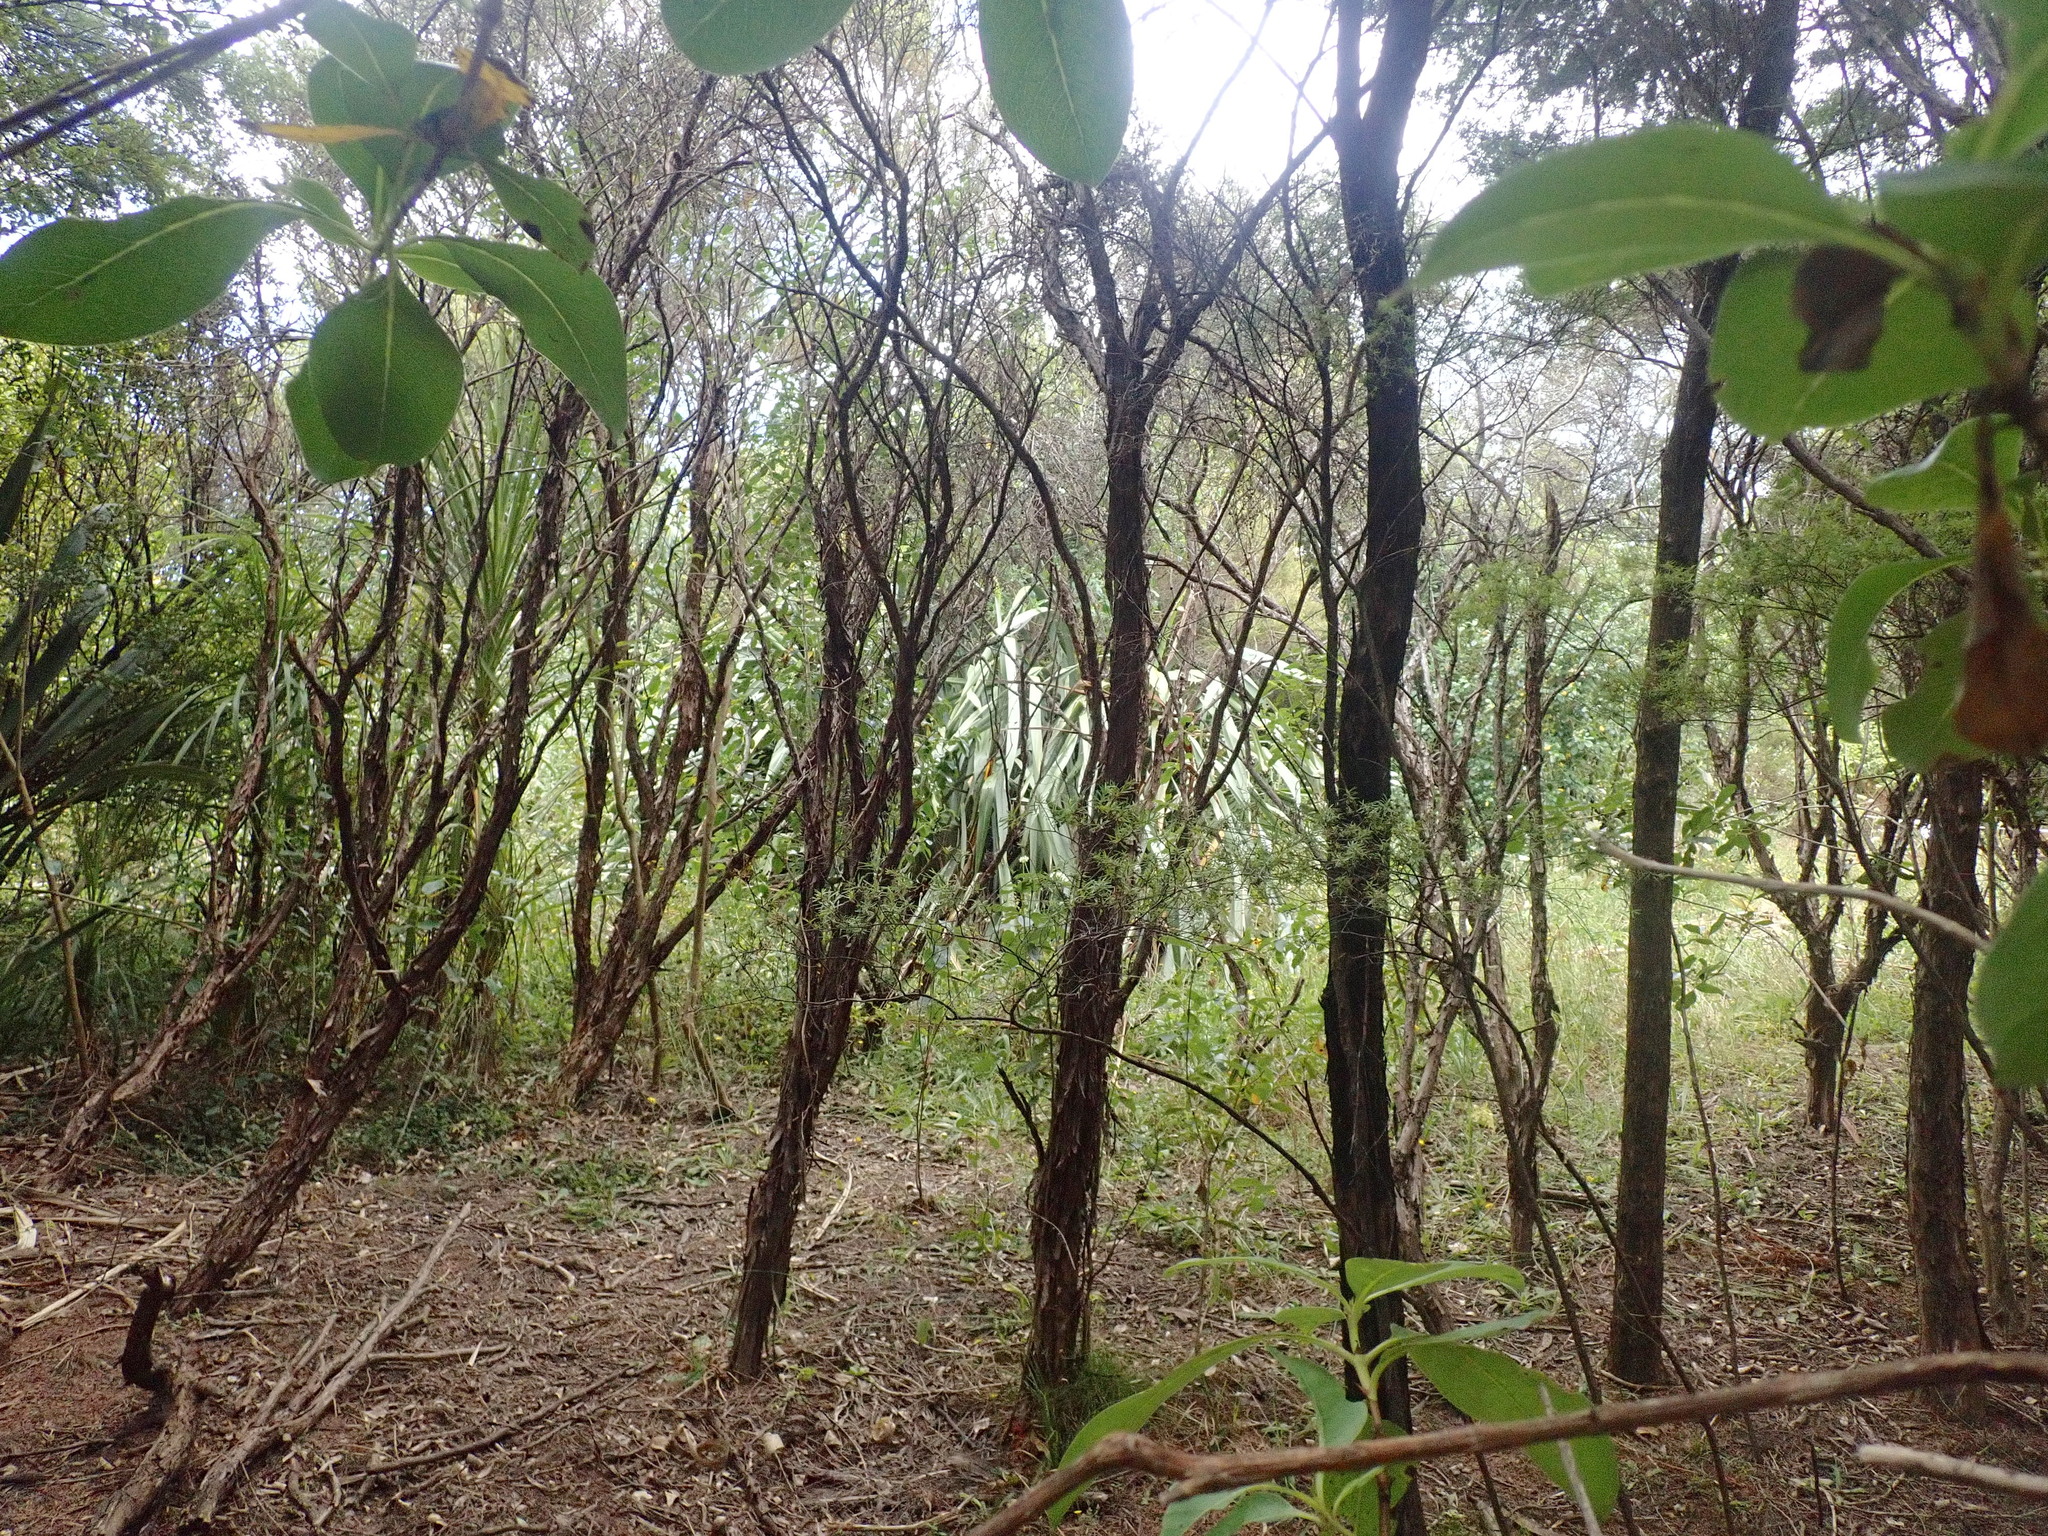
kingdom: Plantae
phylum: Tracheophyta
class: Magnoliopsida
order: Myrtales
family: Myrtaceae
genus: Leptospermum
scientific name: Leptospermum scoparium
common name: Broom tea-tree
